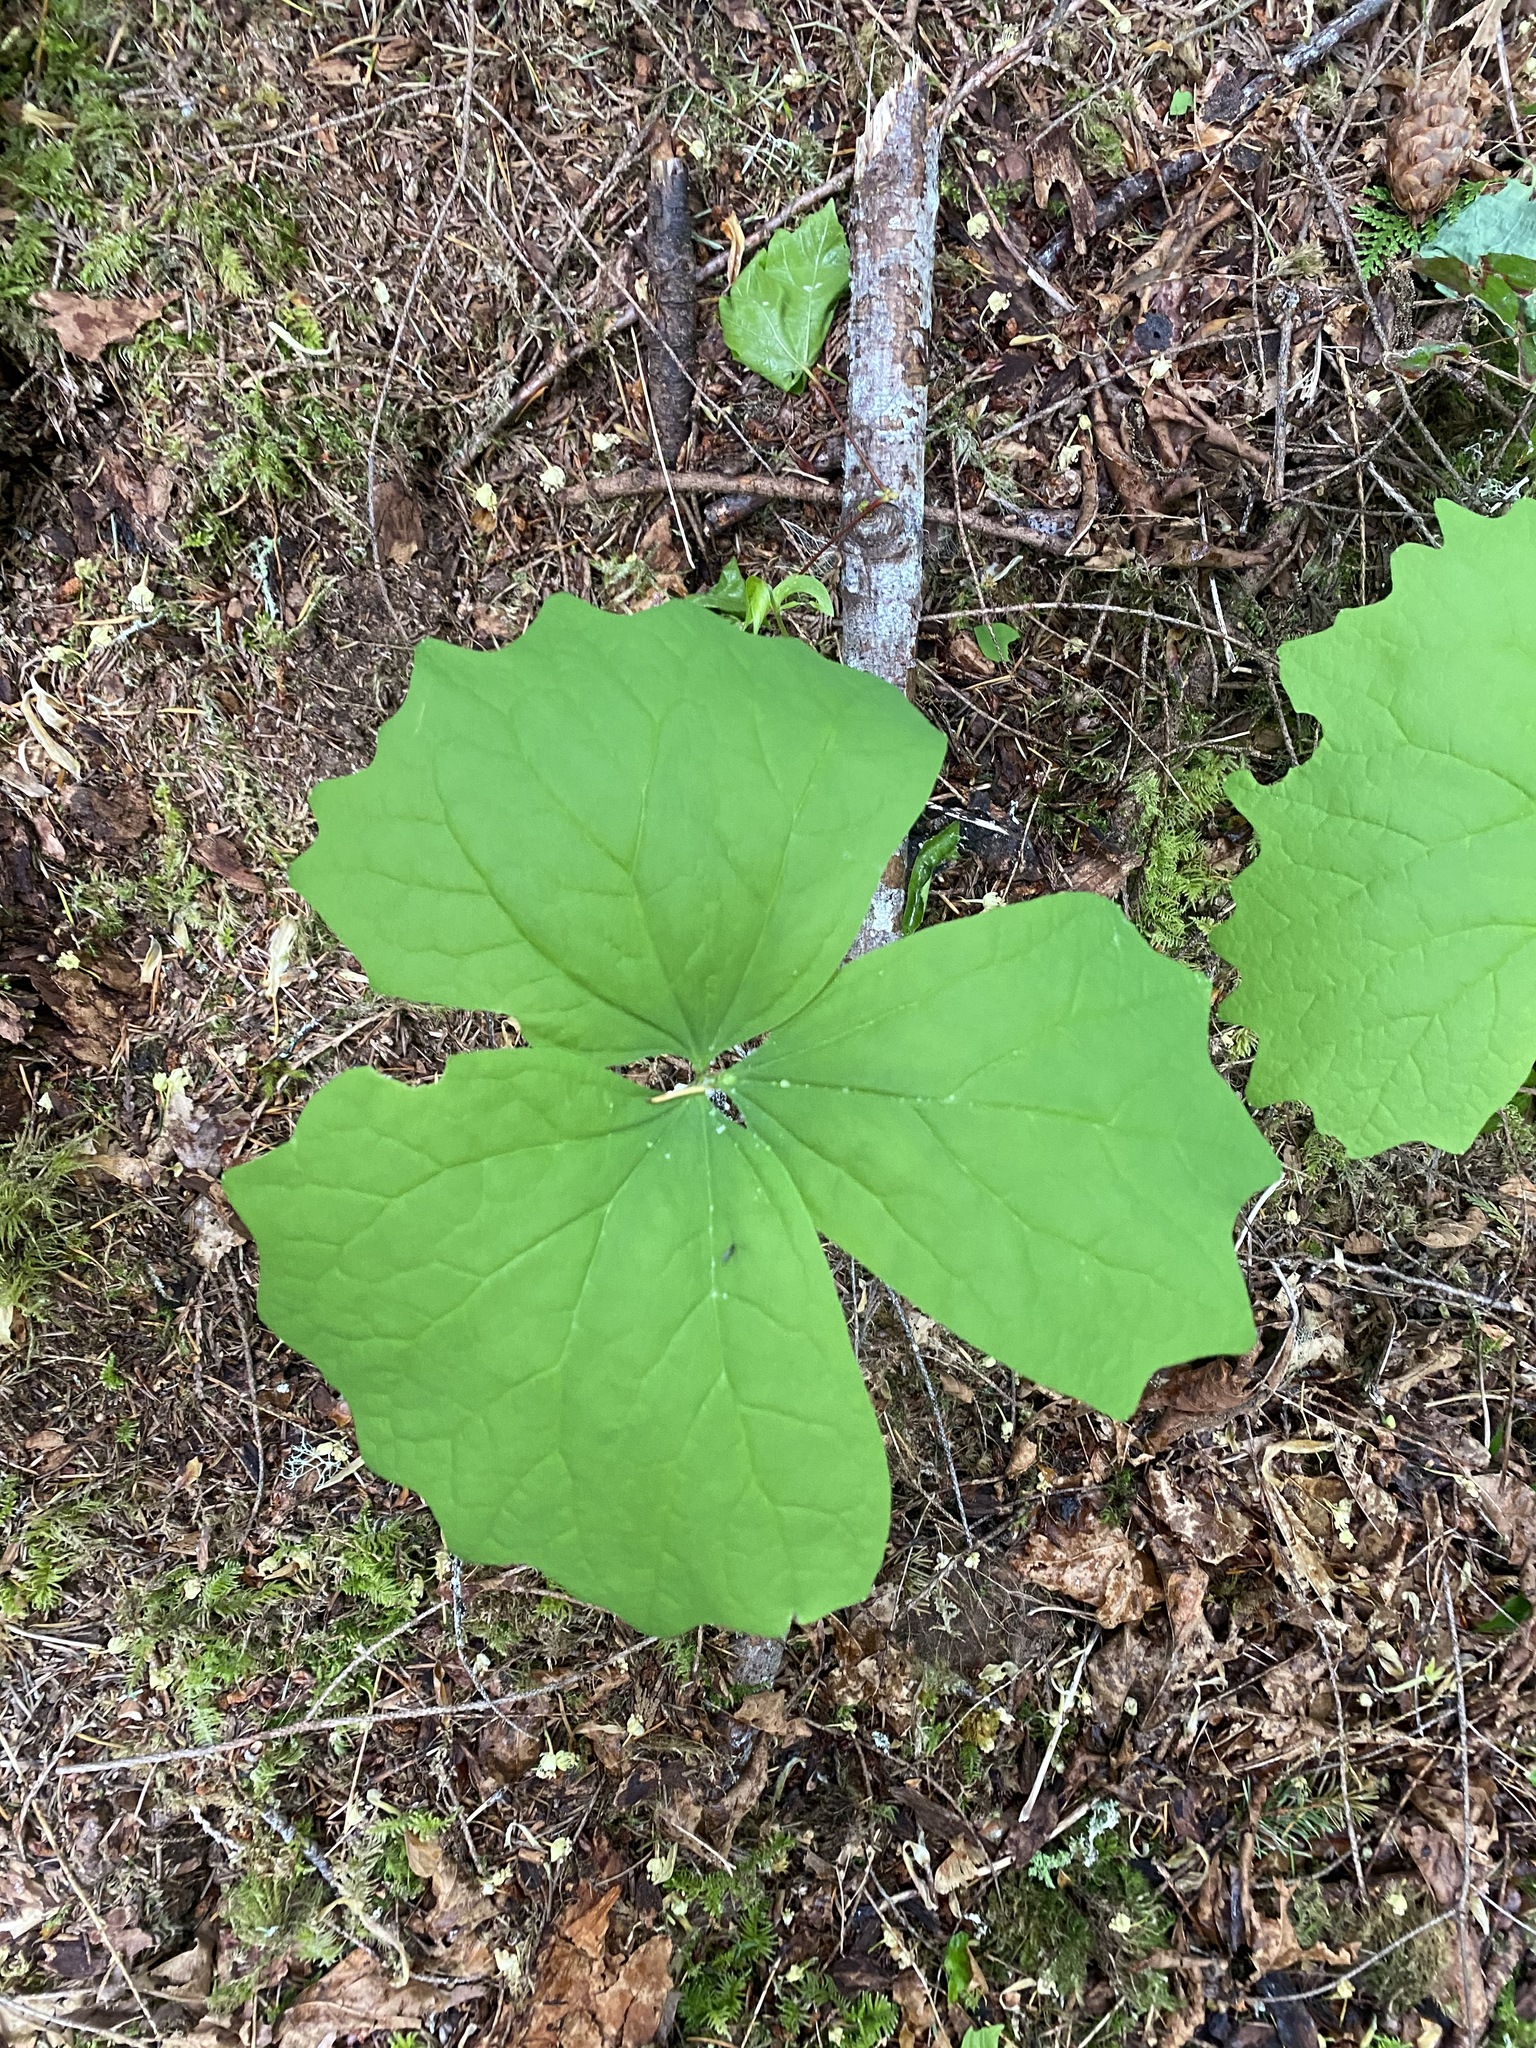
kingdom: Plantae
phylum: Tracheophyta
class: Magnoliopsida
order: Ranunculales
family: Berberidaceae
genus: Achlys
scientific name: Achlys triphylla
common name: Vanilla-leaf
